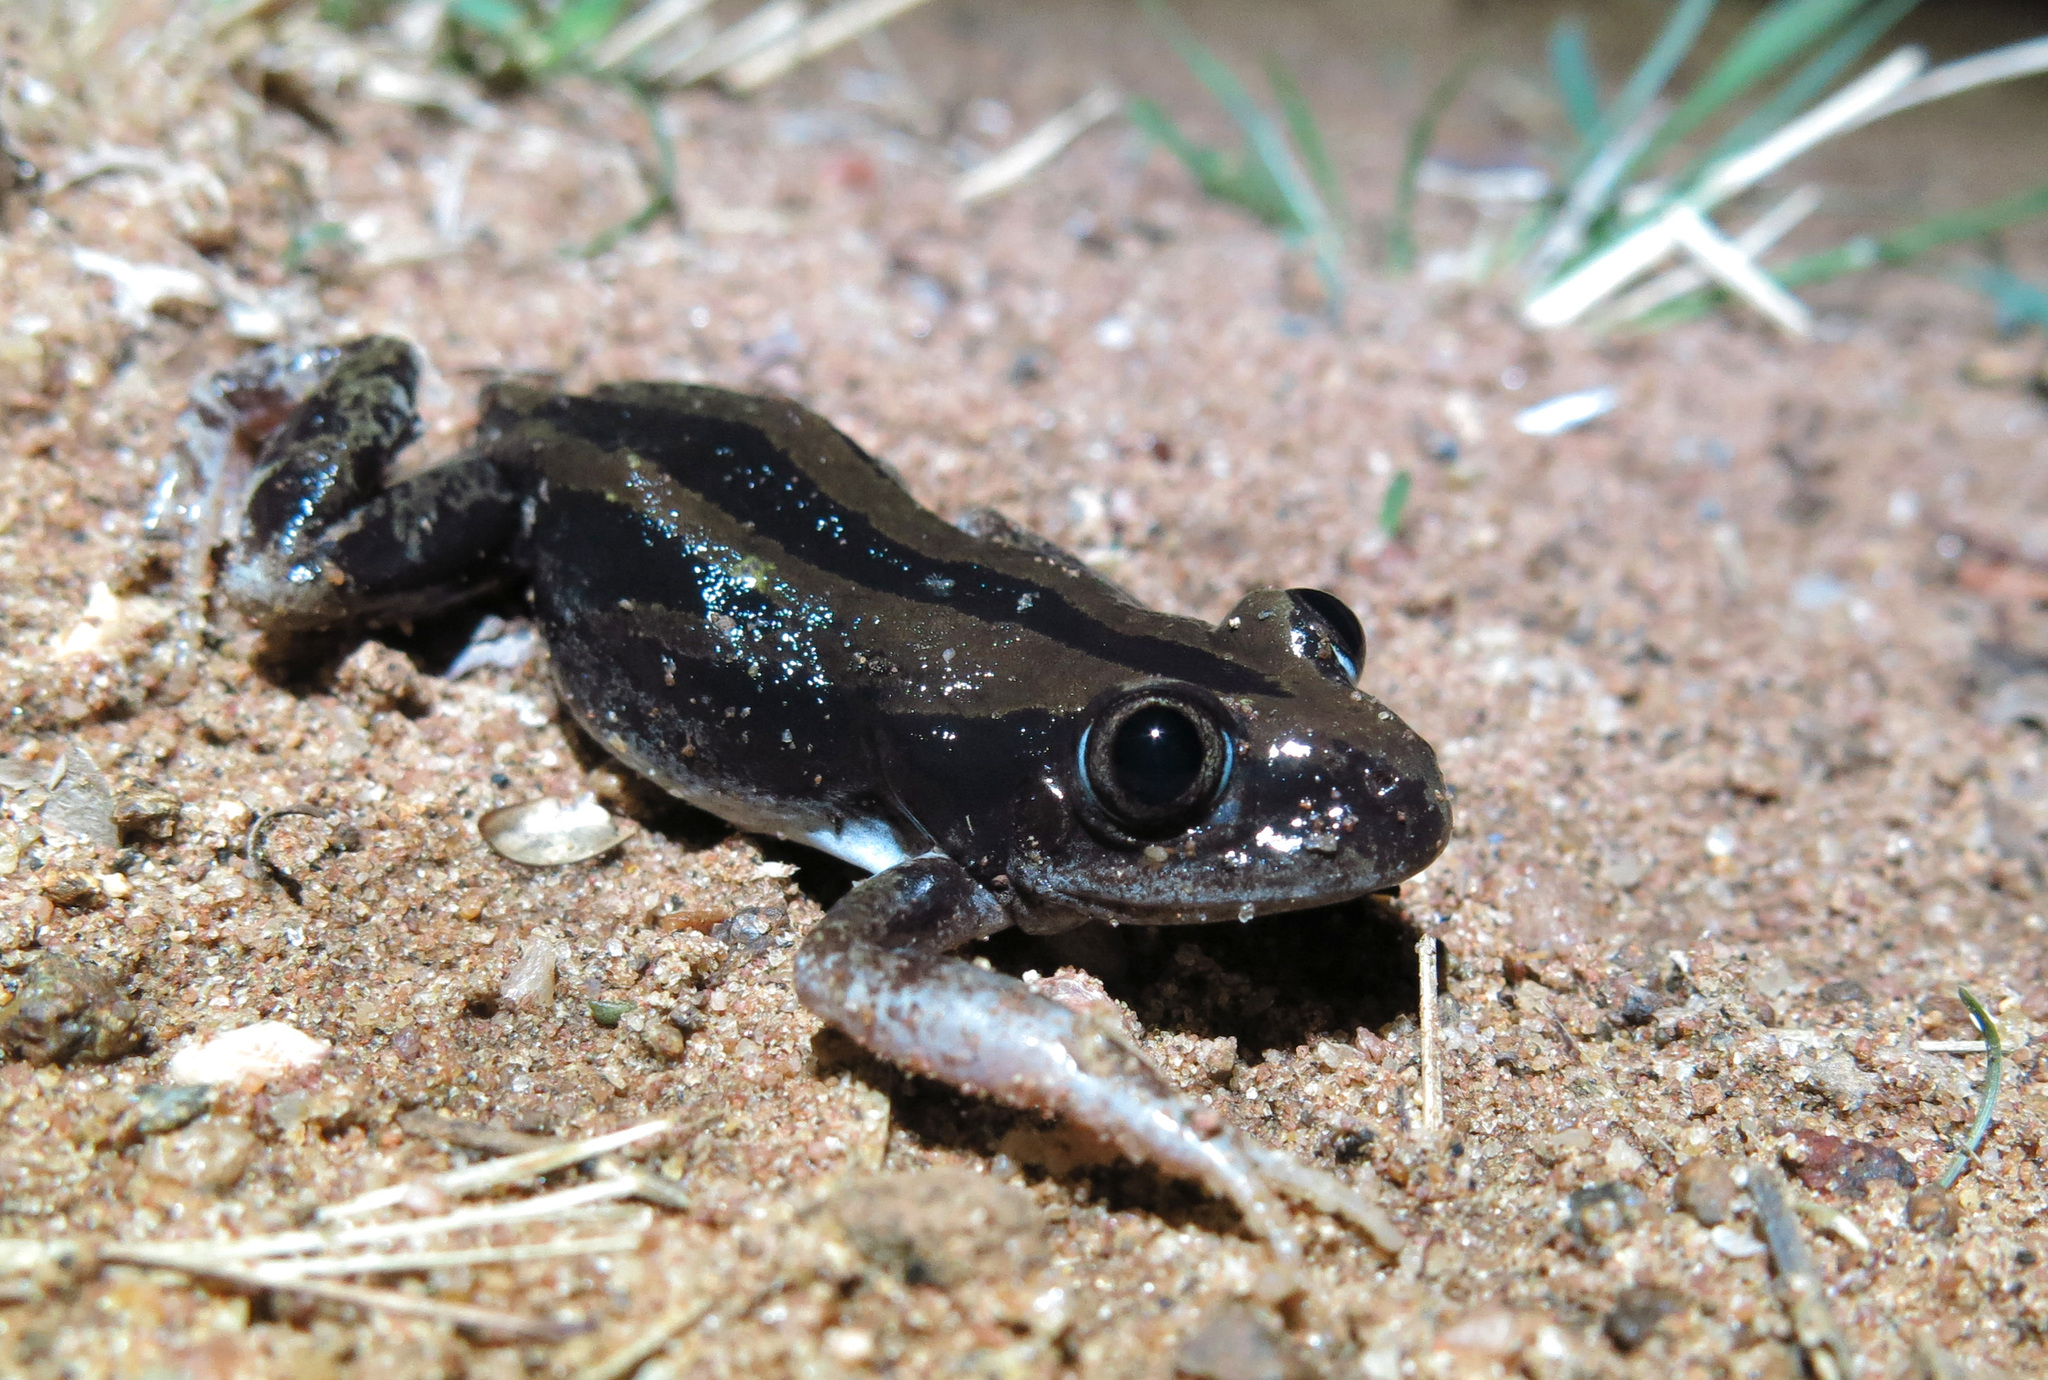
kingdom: Animalia
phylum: Chordata
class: Amphibia
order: Anura
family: Hyperoliidae
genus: Kassina
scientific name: Kassina senegalensis
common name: Senegal land frog
